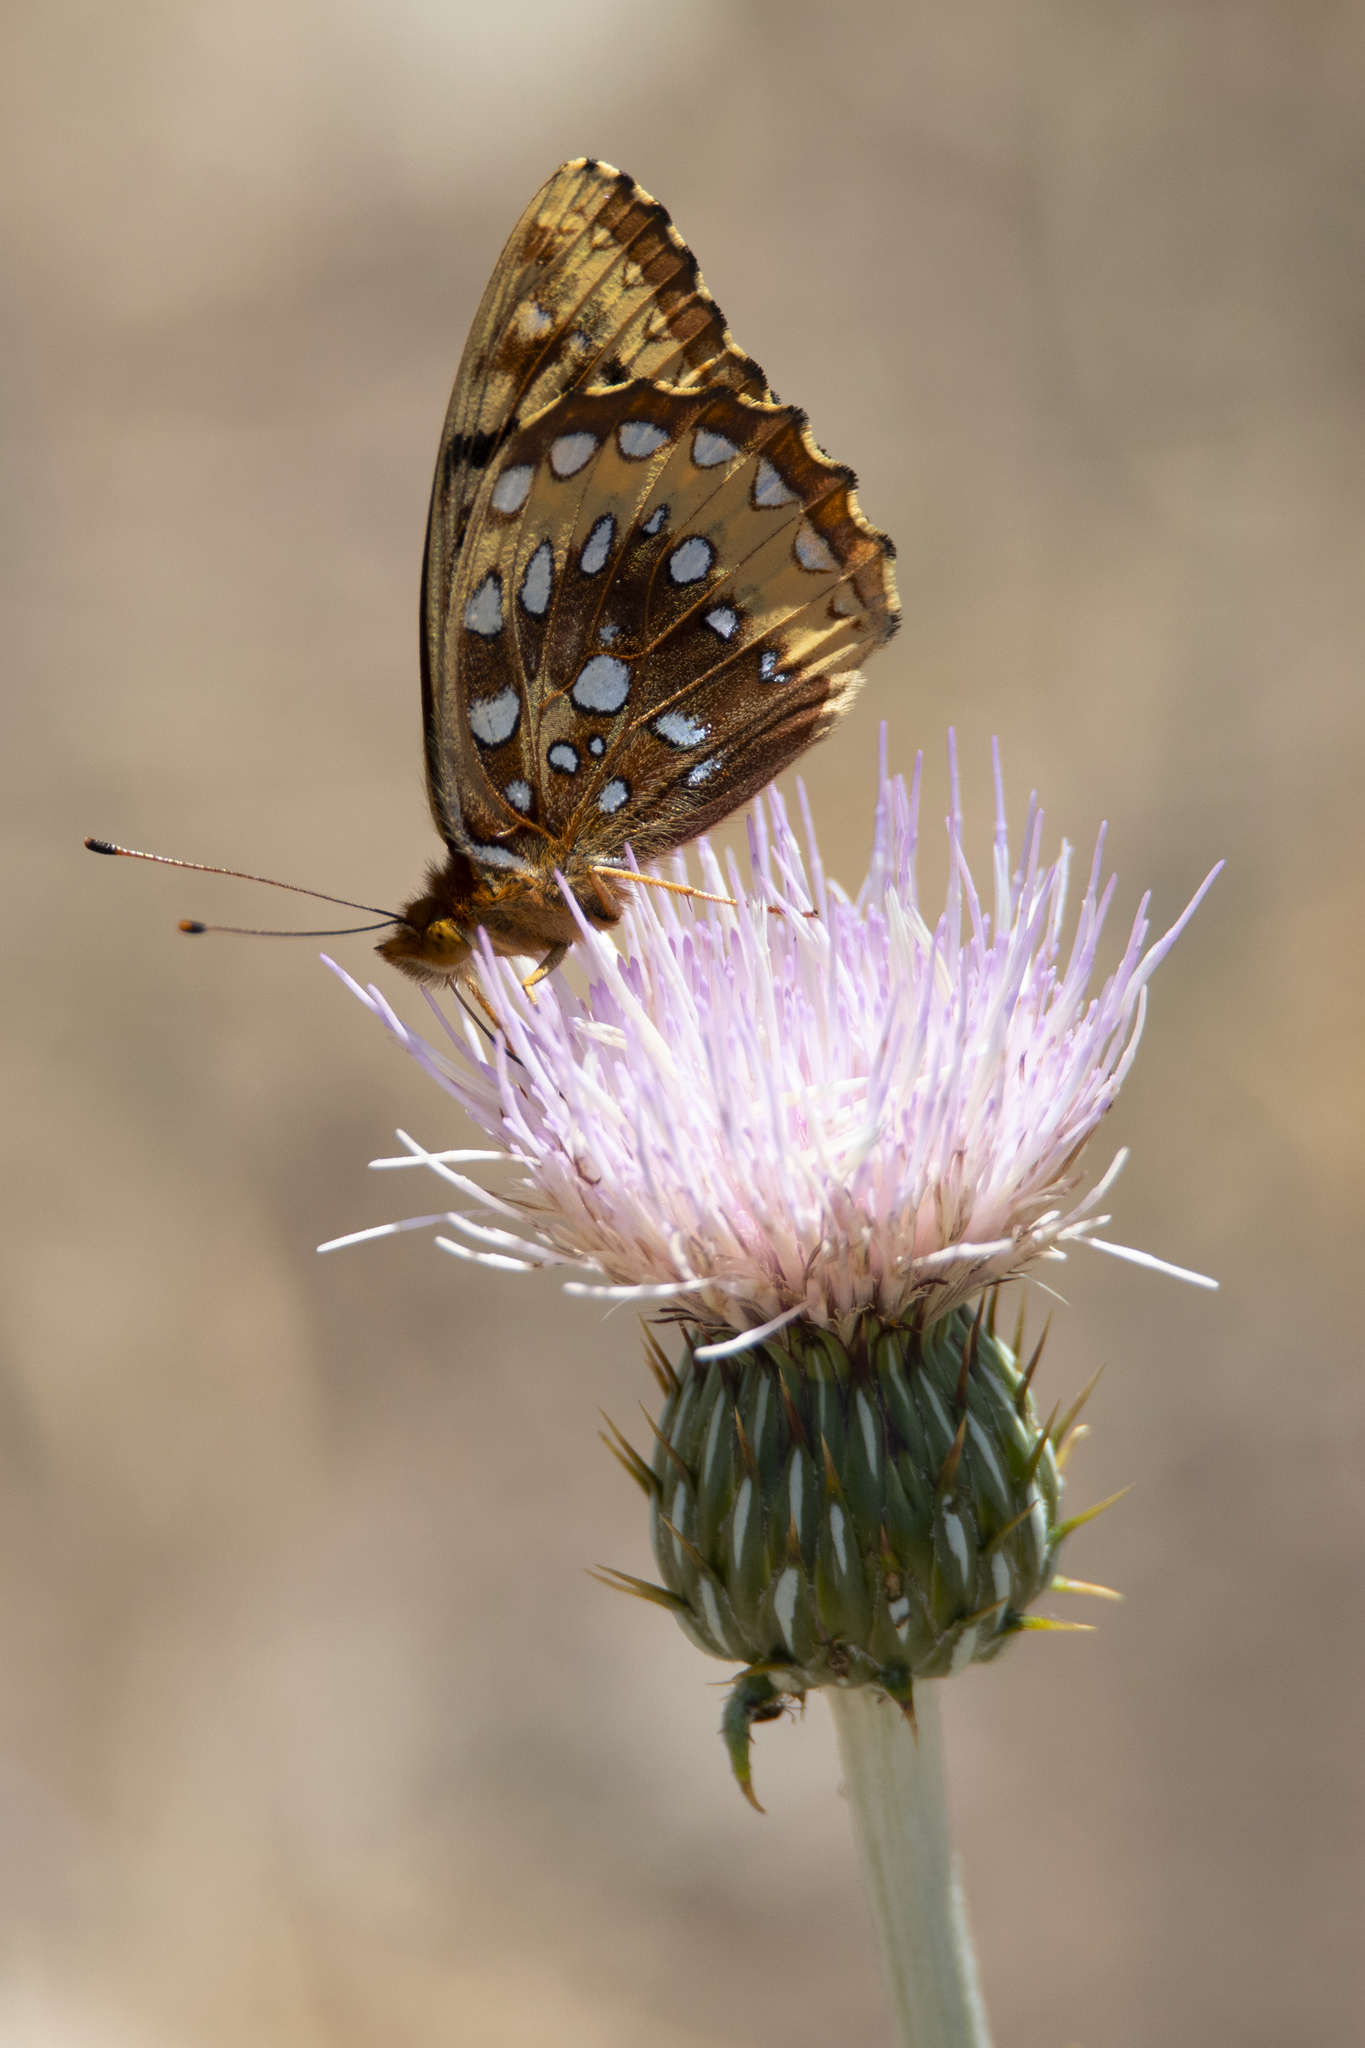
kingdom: Animalia
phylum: Arthropoda
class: Insecta
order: Lepidoptera
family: Nymphalidae
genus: Speyeria
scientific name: Speyeria cybele
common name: Great spangled fritillary
